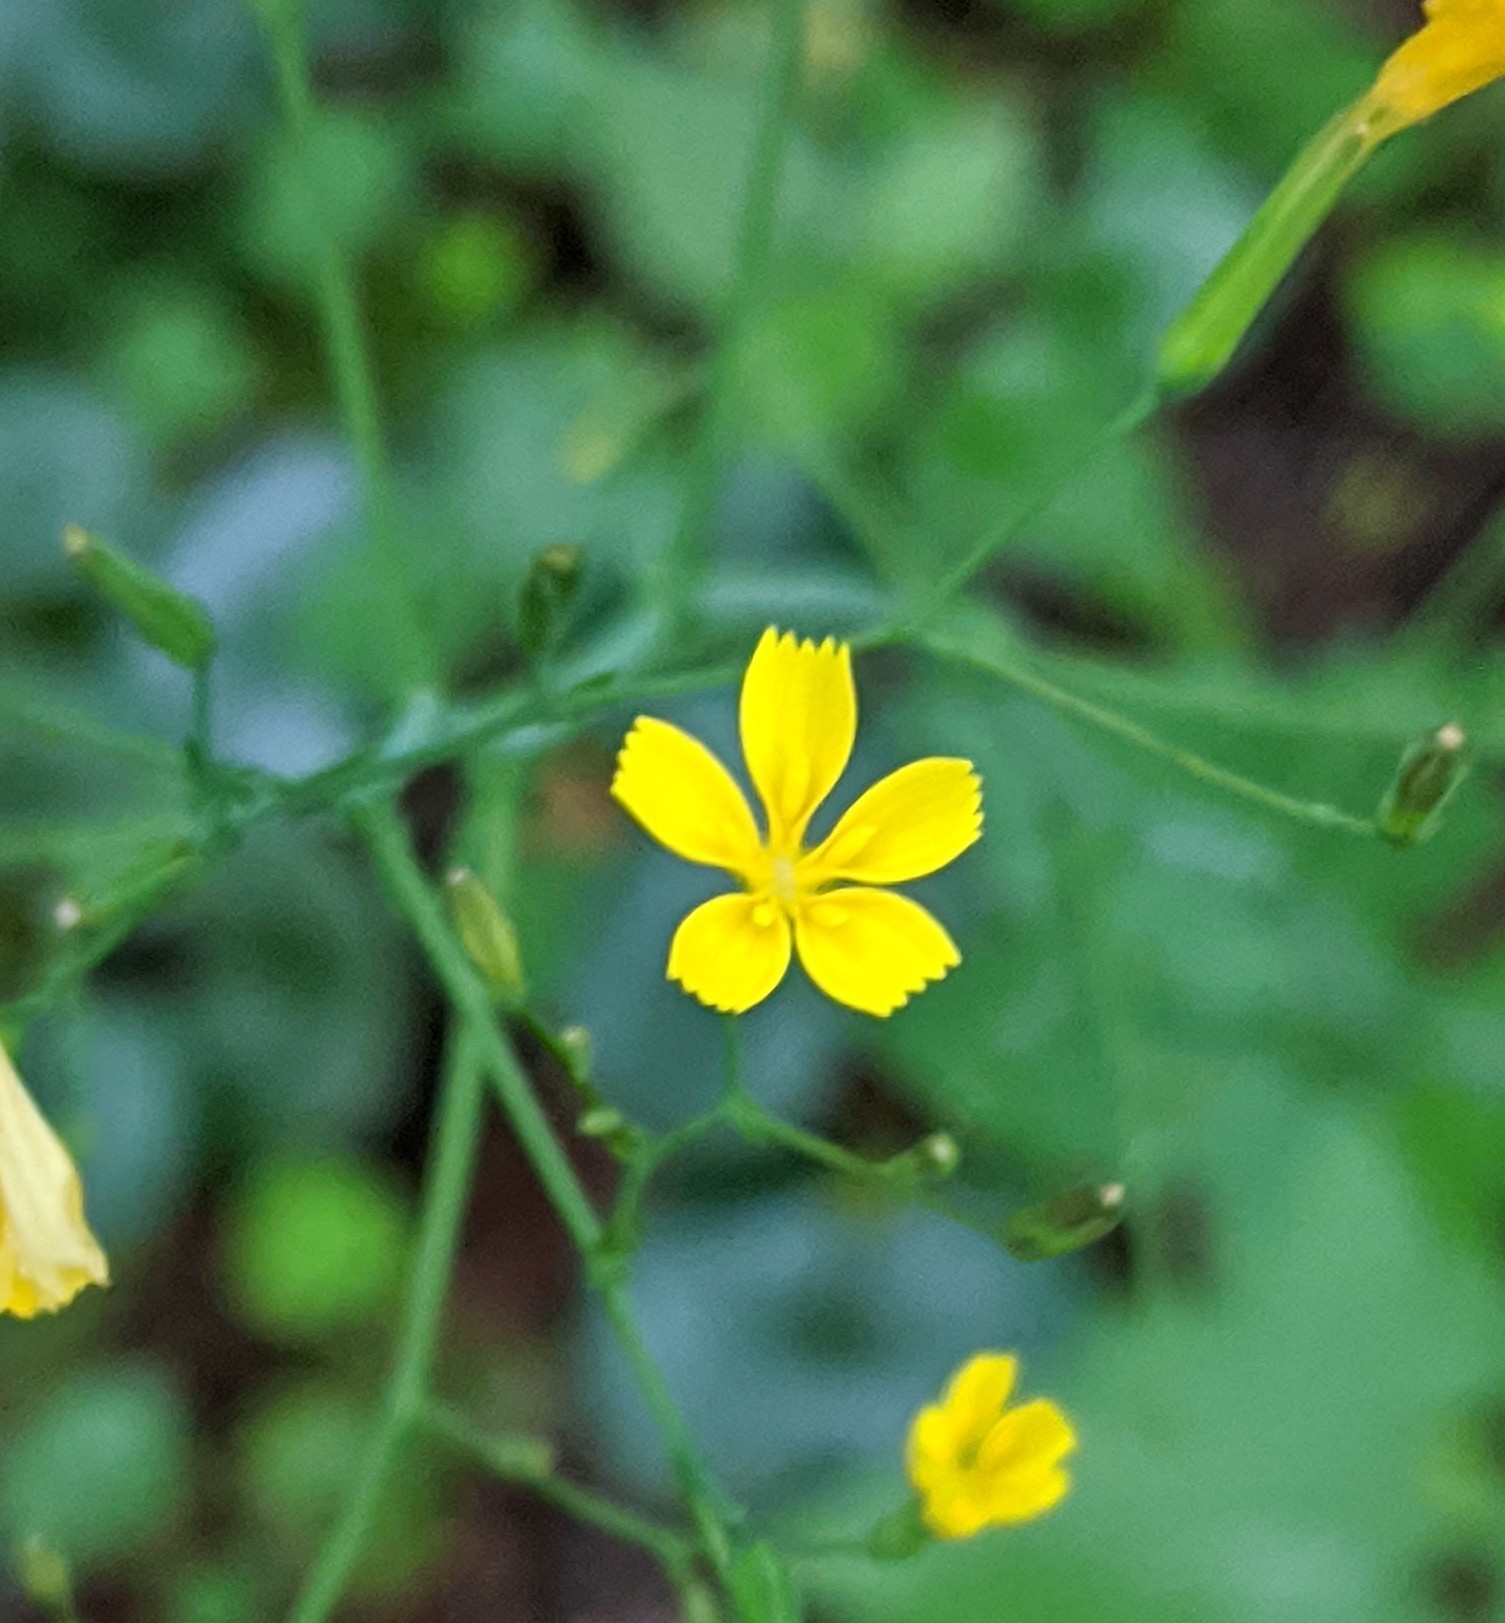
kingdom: Plantae
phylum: Tracheophyta
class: Magnoliopsida
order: Asterales
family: Asteraceae
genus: Mycelis
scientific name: Mycelis muralis
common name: Wall lettuce
